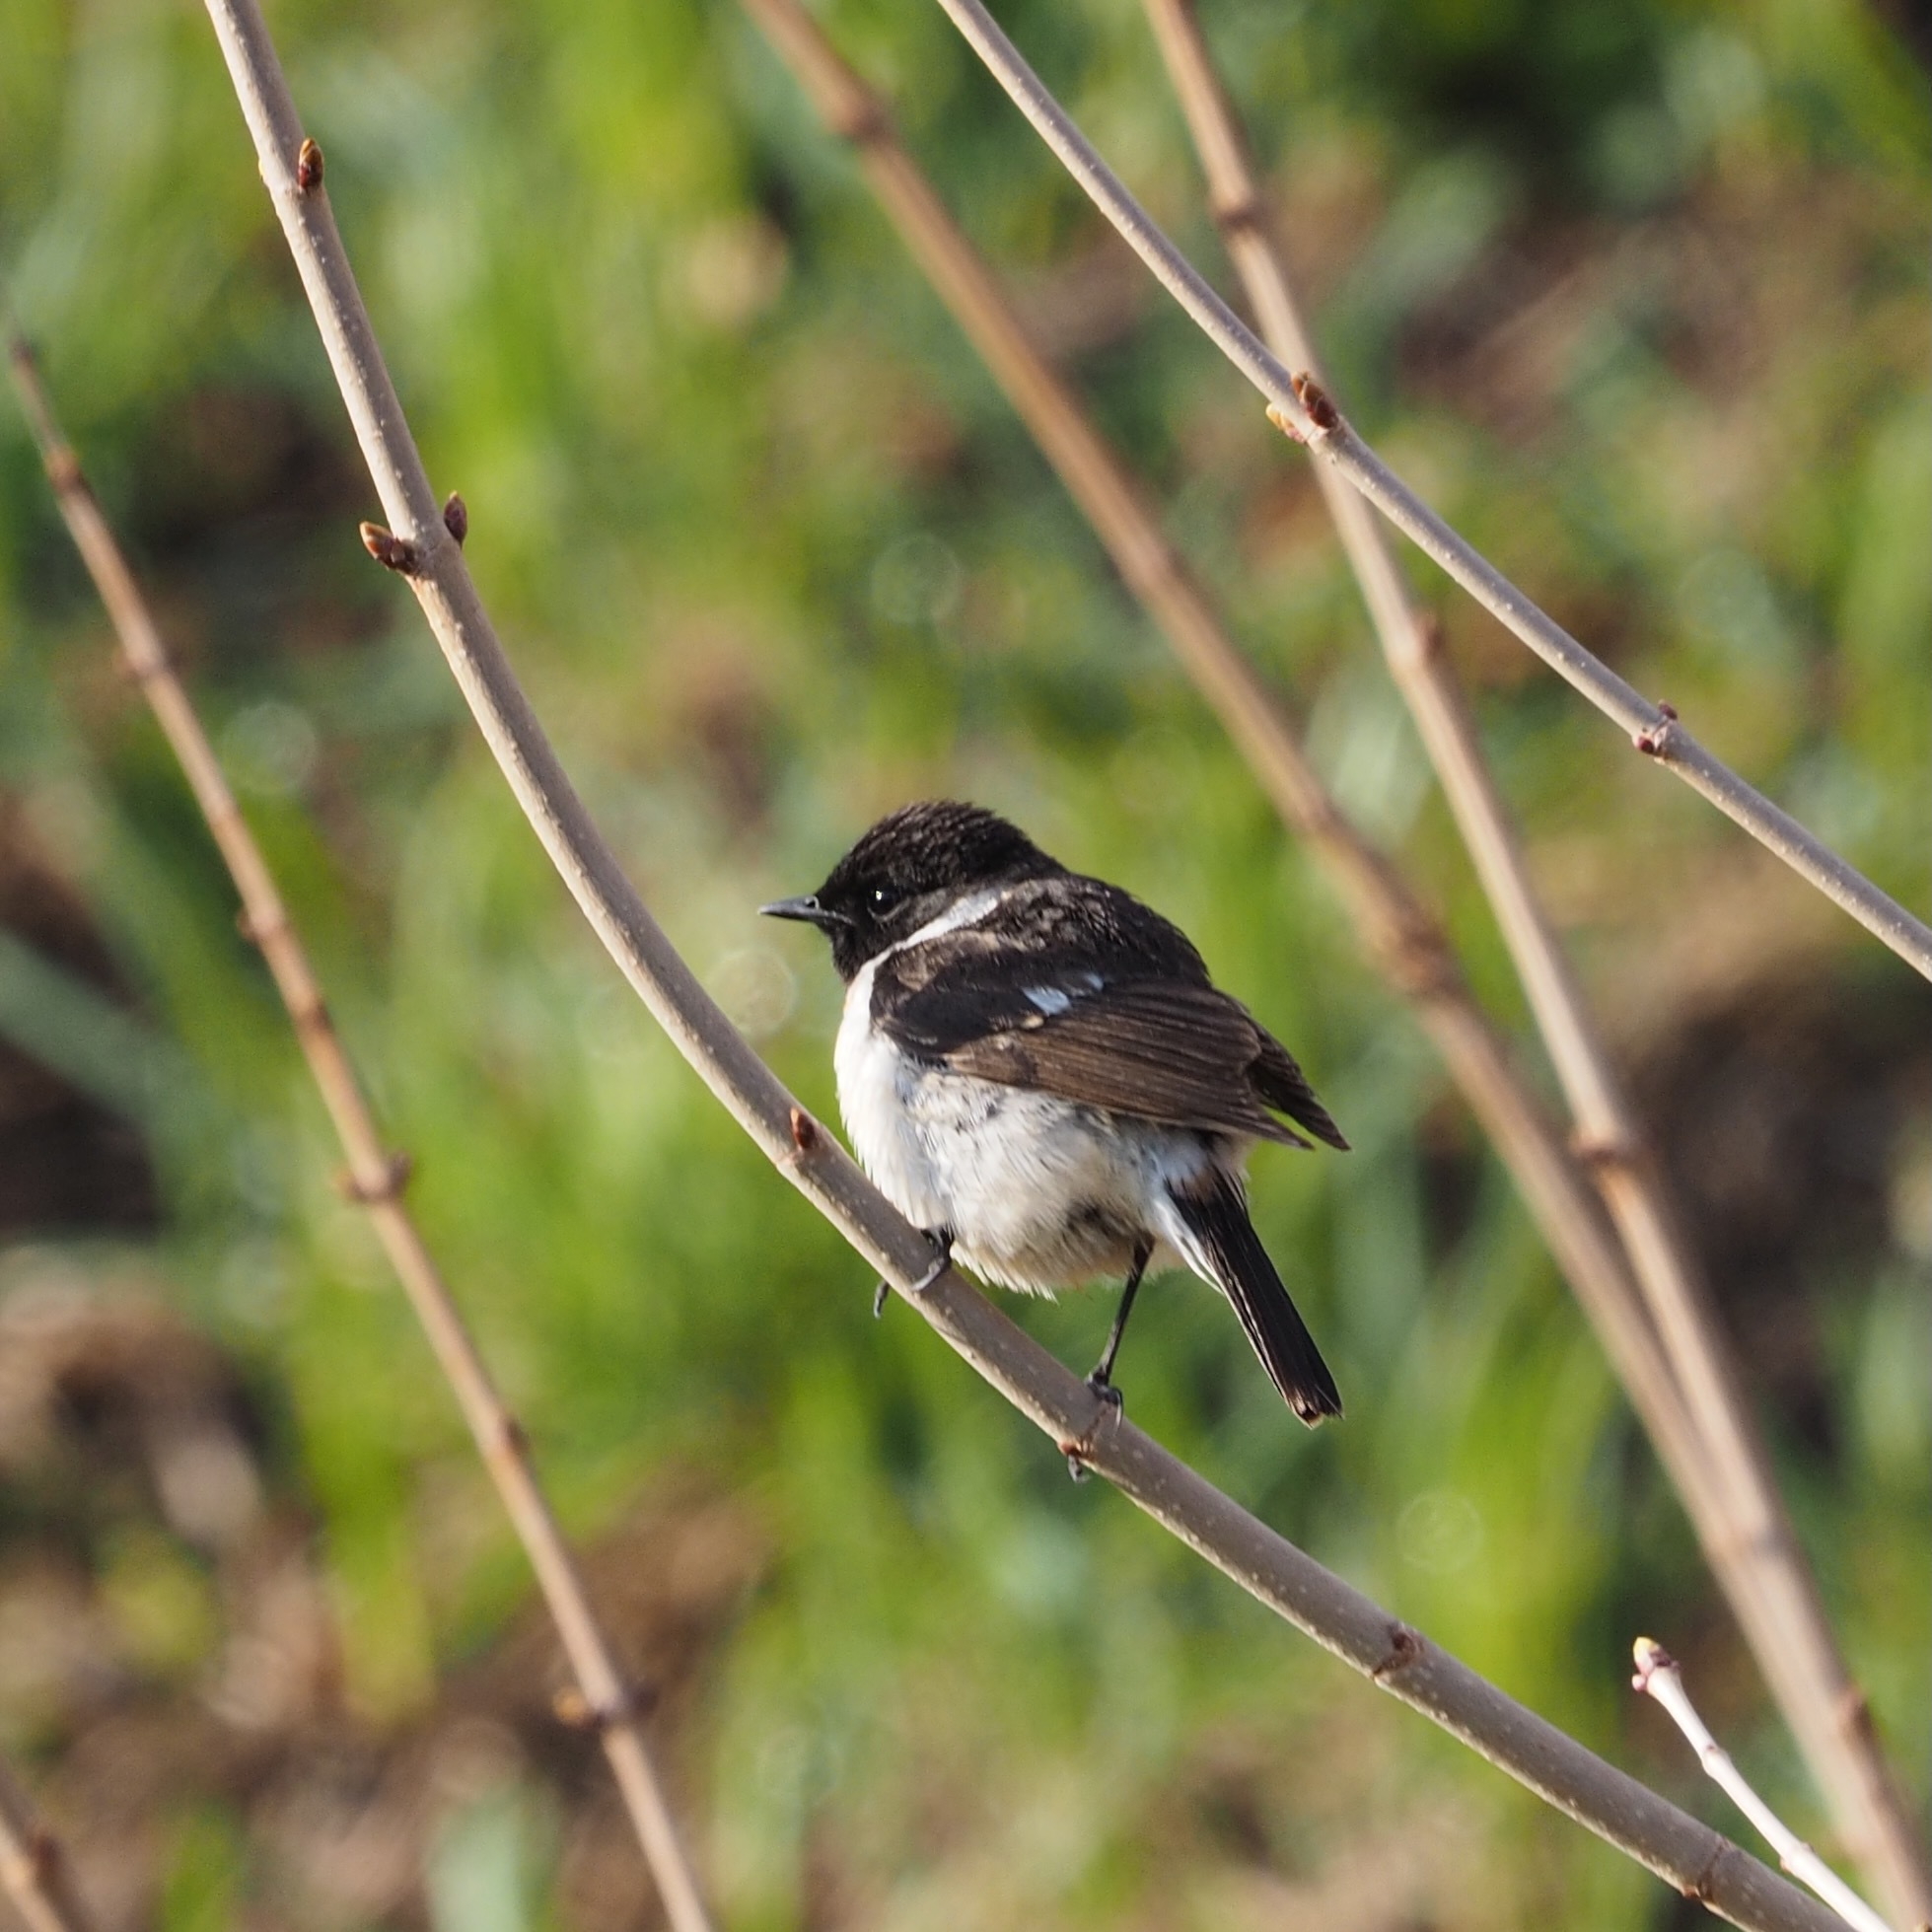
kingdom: Animalia
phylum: Chordata
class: Aves
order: Passeriformes
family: Muscicapidae
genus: Saxicola
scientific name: Saxicola stejnegeri
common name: Stejneger's stonechat
